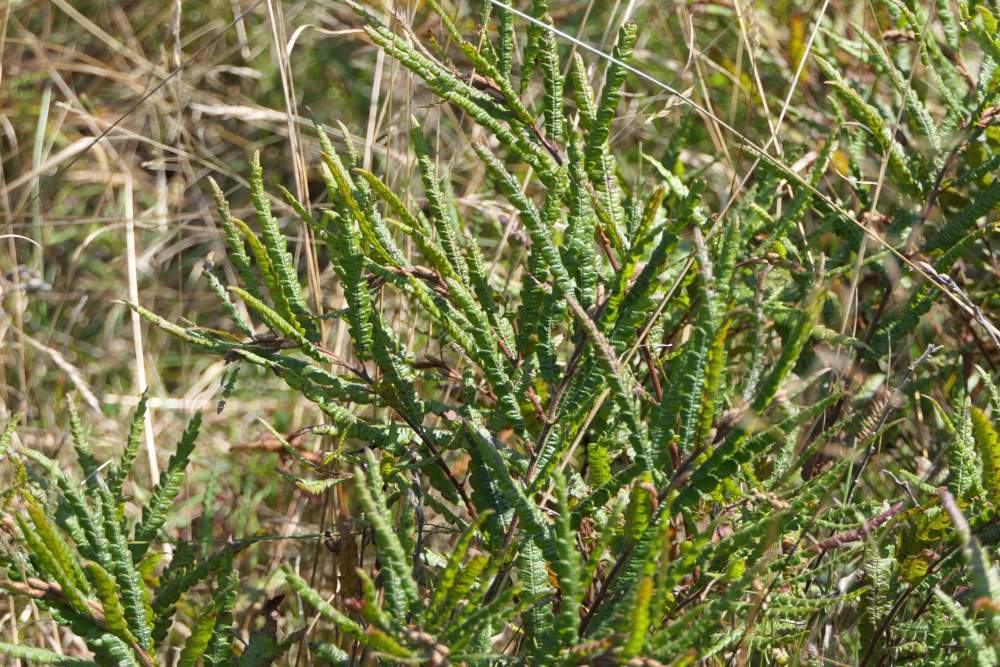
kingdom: Plantae
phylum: Tracheophyta
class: Magnoliopsida
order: Fagales
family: Myricaceae
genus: Comptonia
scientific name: Comptonia peregrina
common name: Sweet-fern
